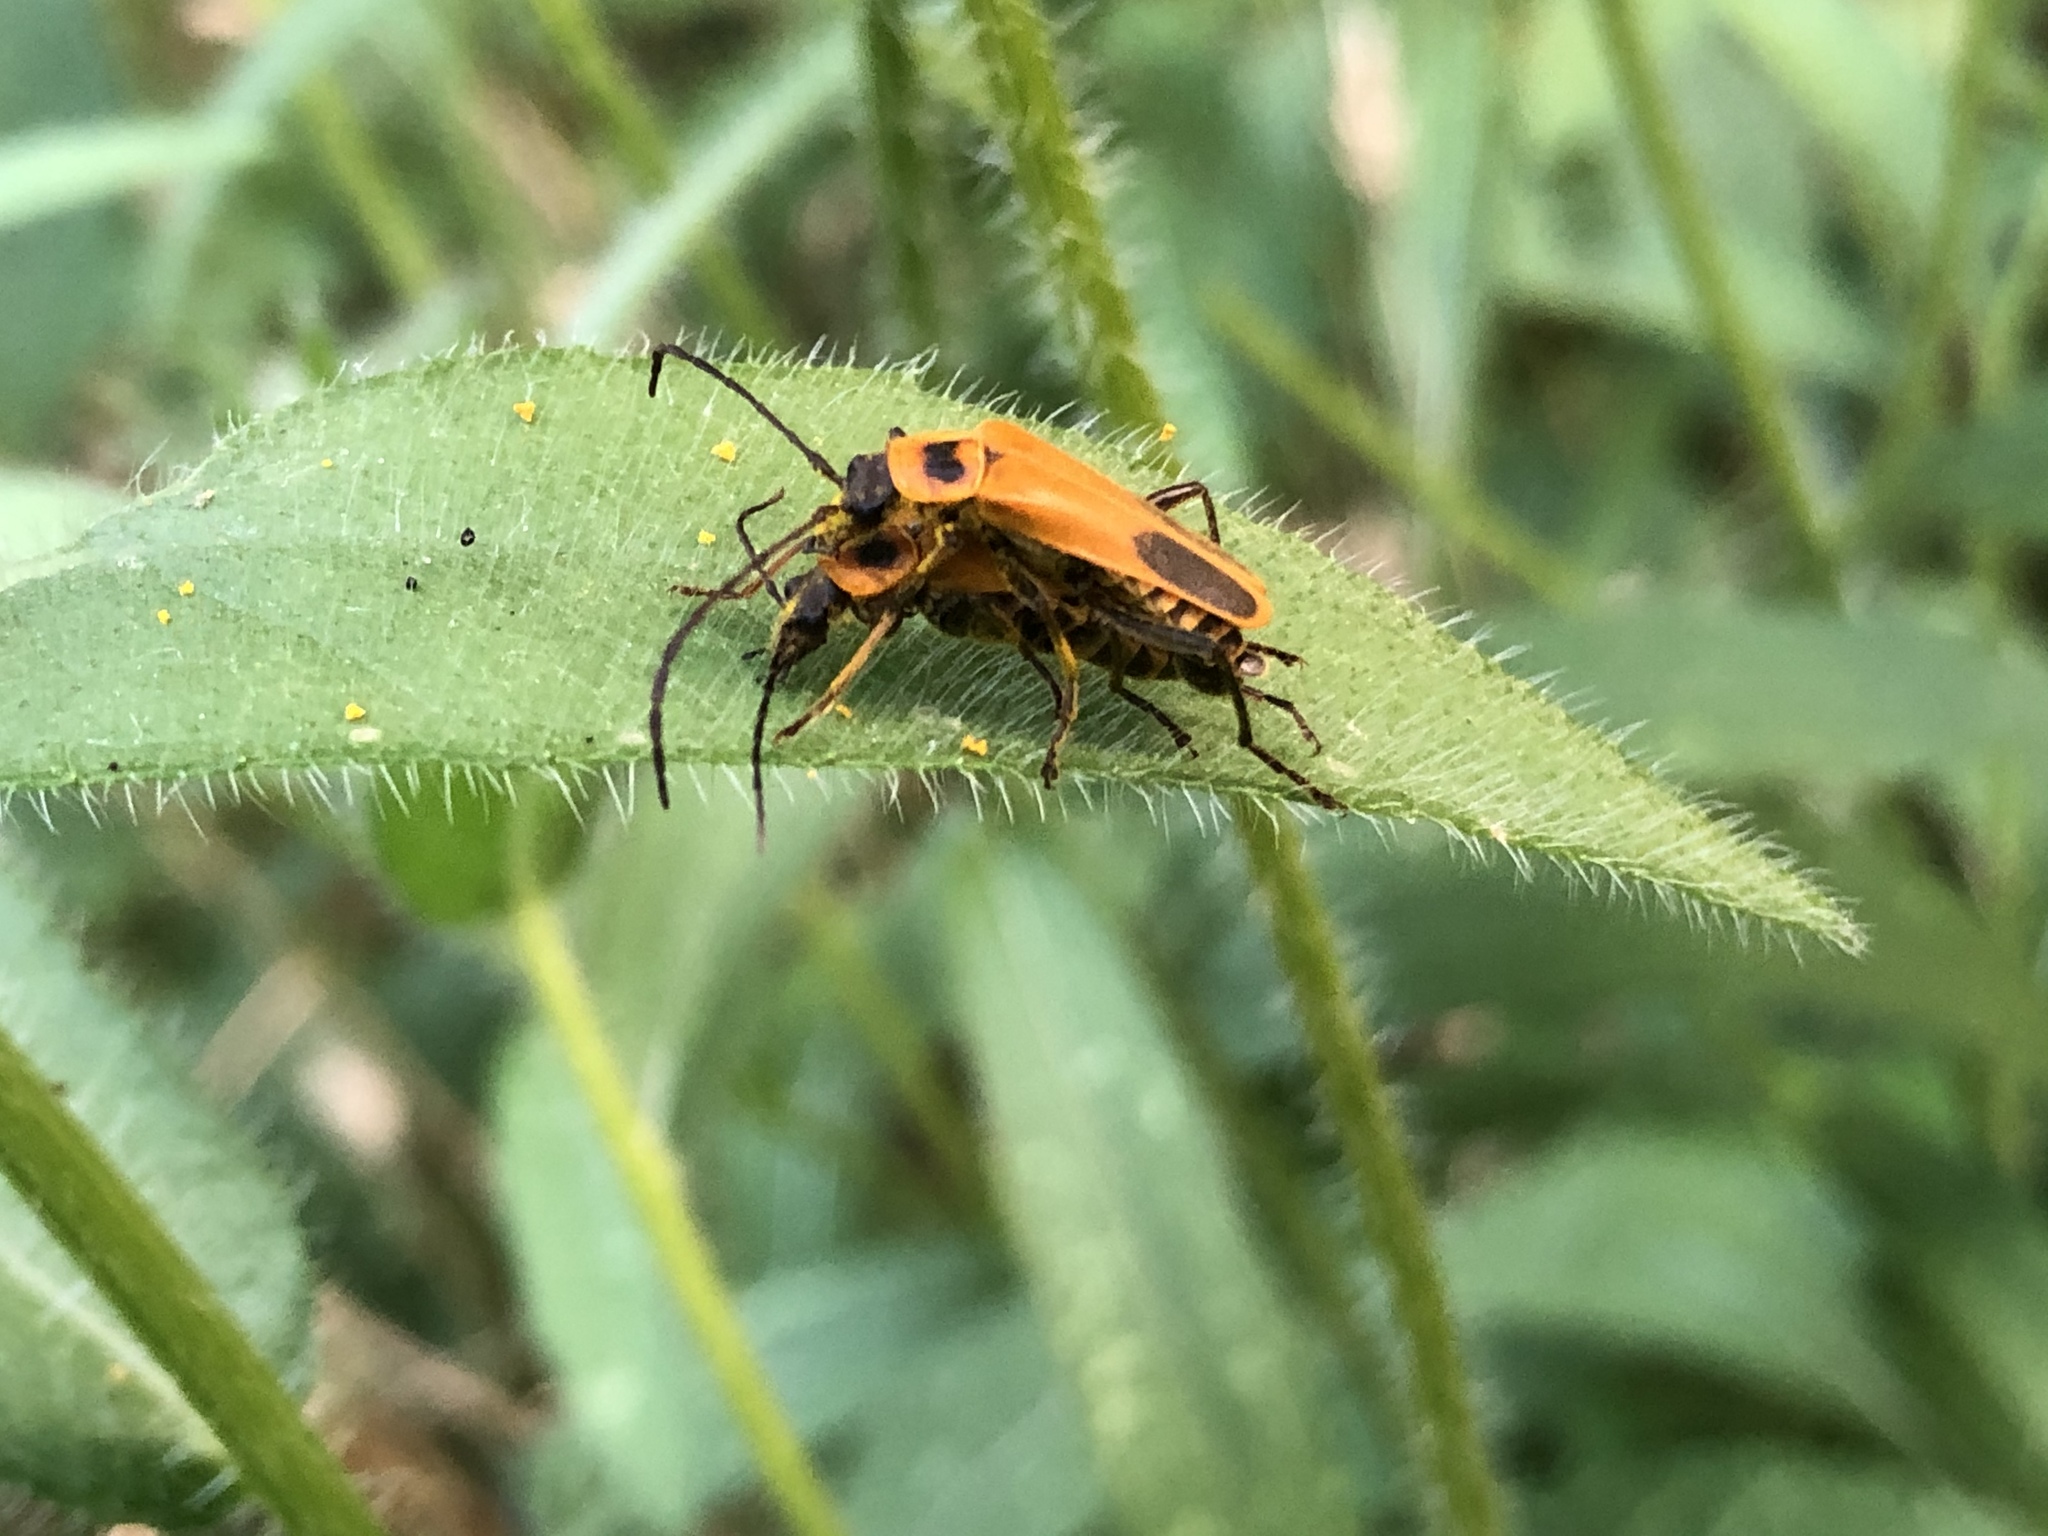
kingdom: Animalia
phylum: Arthropoda
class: Insecta
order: Coleoptera
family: Cantharidae
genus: Chauliognathus
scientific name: Chauliognathus pensylvanicus
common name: Goldenrod soldier beetle
